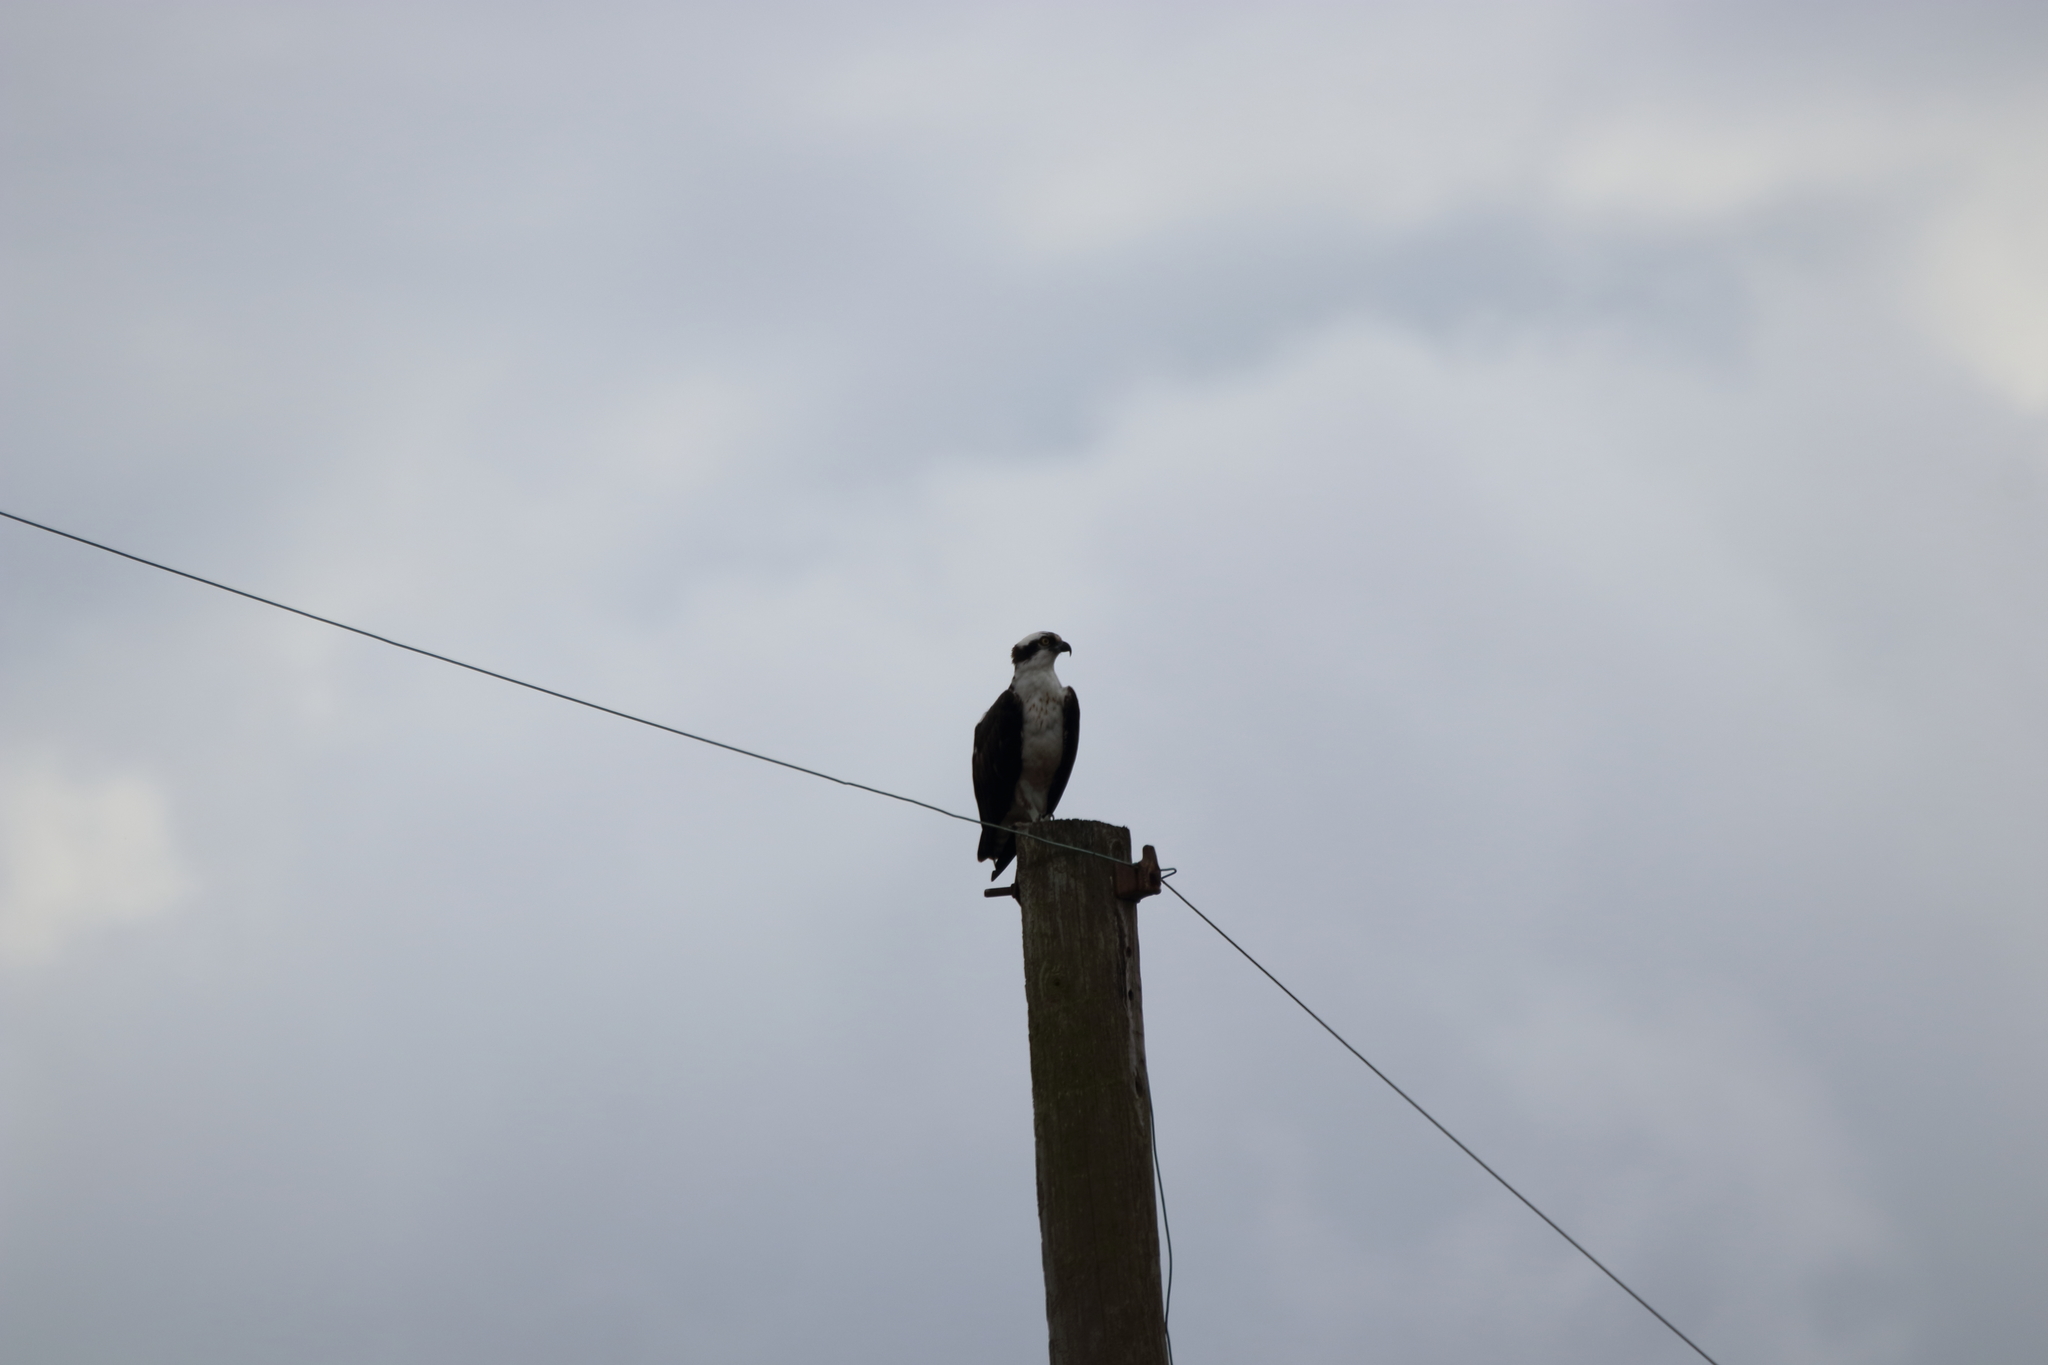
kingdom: Animalia
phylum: Chordata
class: Aves
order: Accipitriformes
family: Pandionidae
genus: Pandion
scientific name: Pandion haliaetus
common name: Osprey
